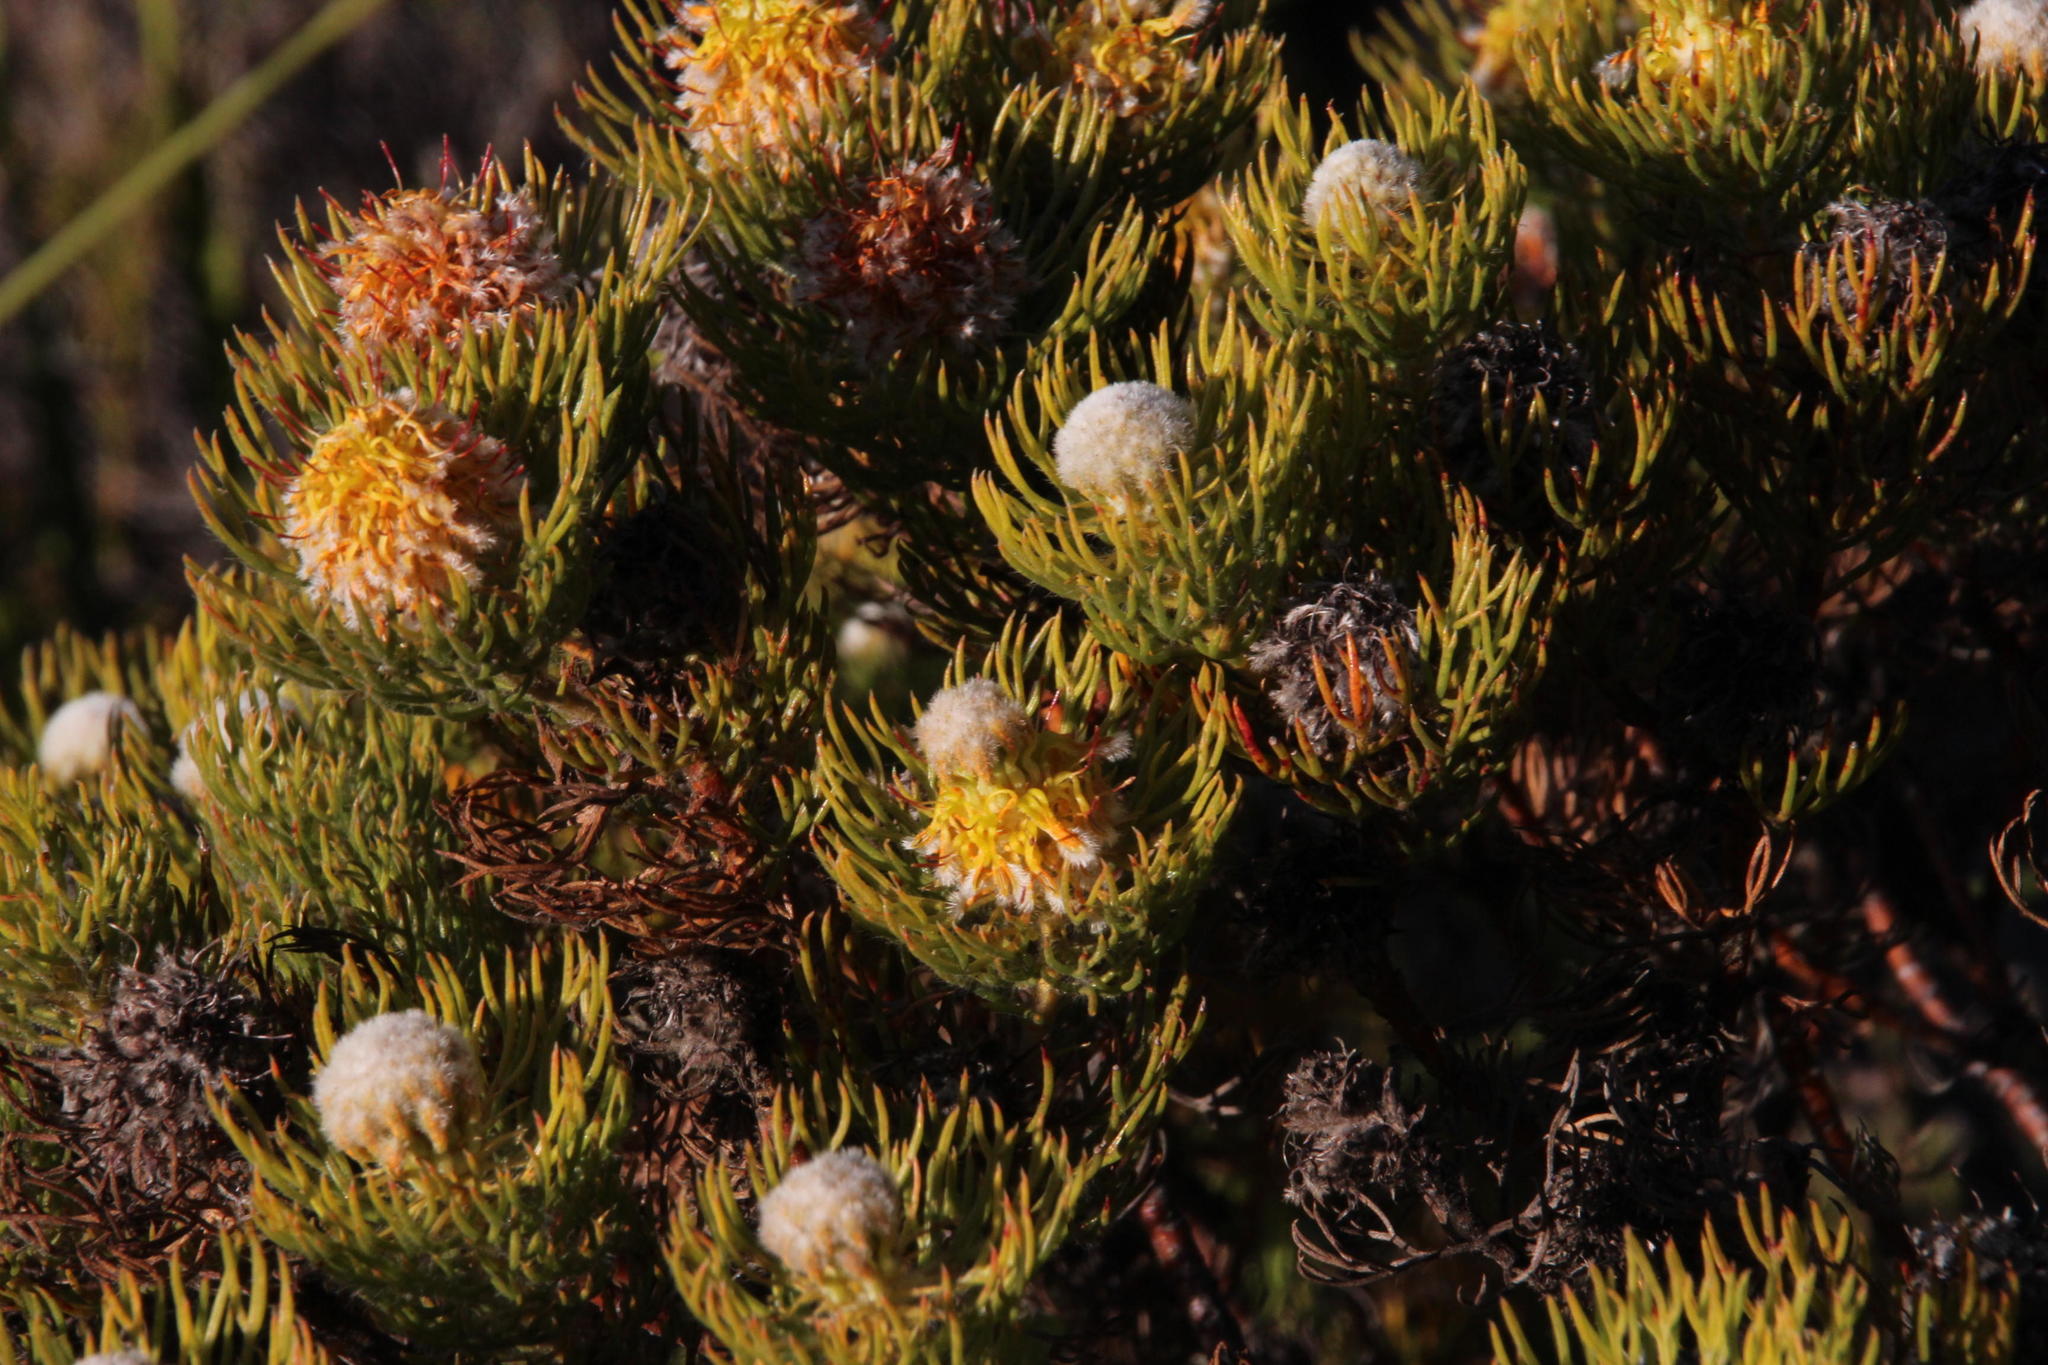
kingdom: Plantae
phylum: Tracheophyta
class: Magnoliopsida
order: Proteales
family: Proteaceae
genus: Serruria
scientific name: Serruria villosa
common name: Golden spiderhead
